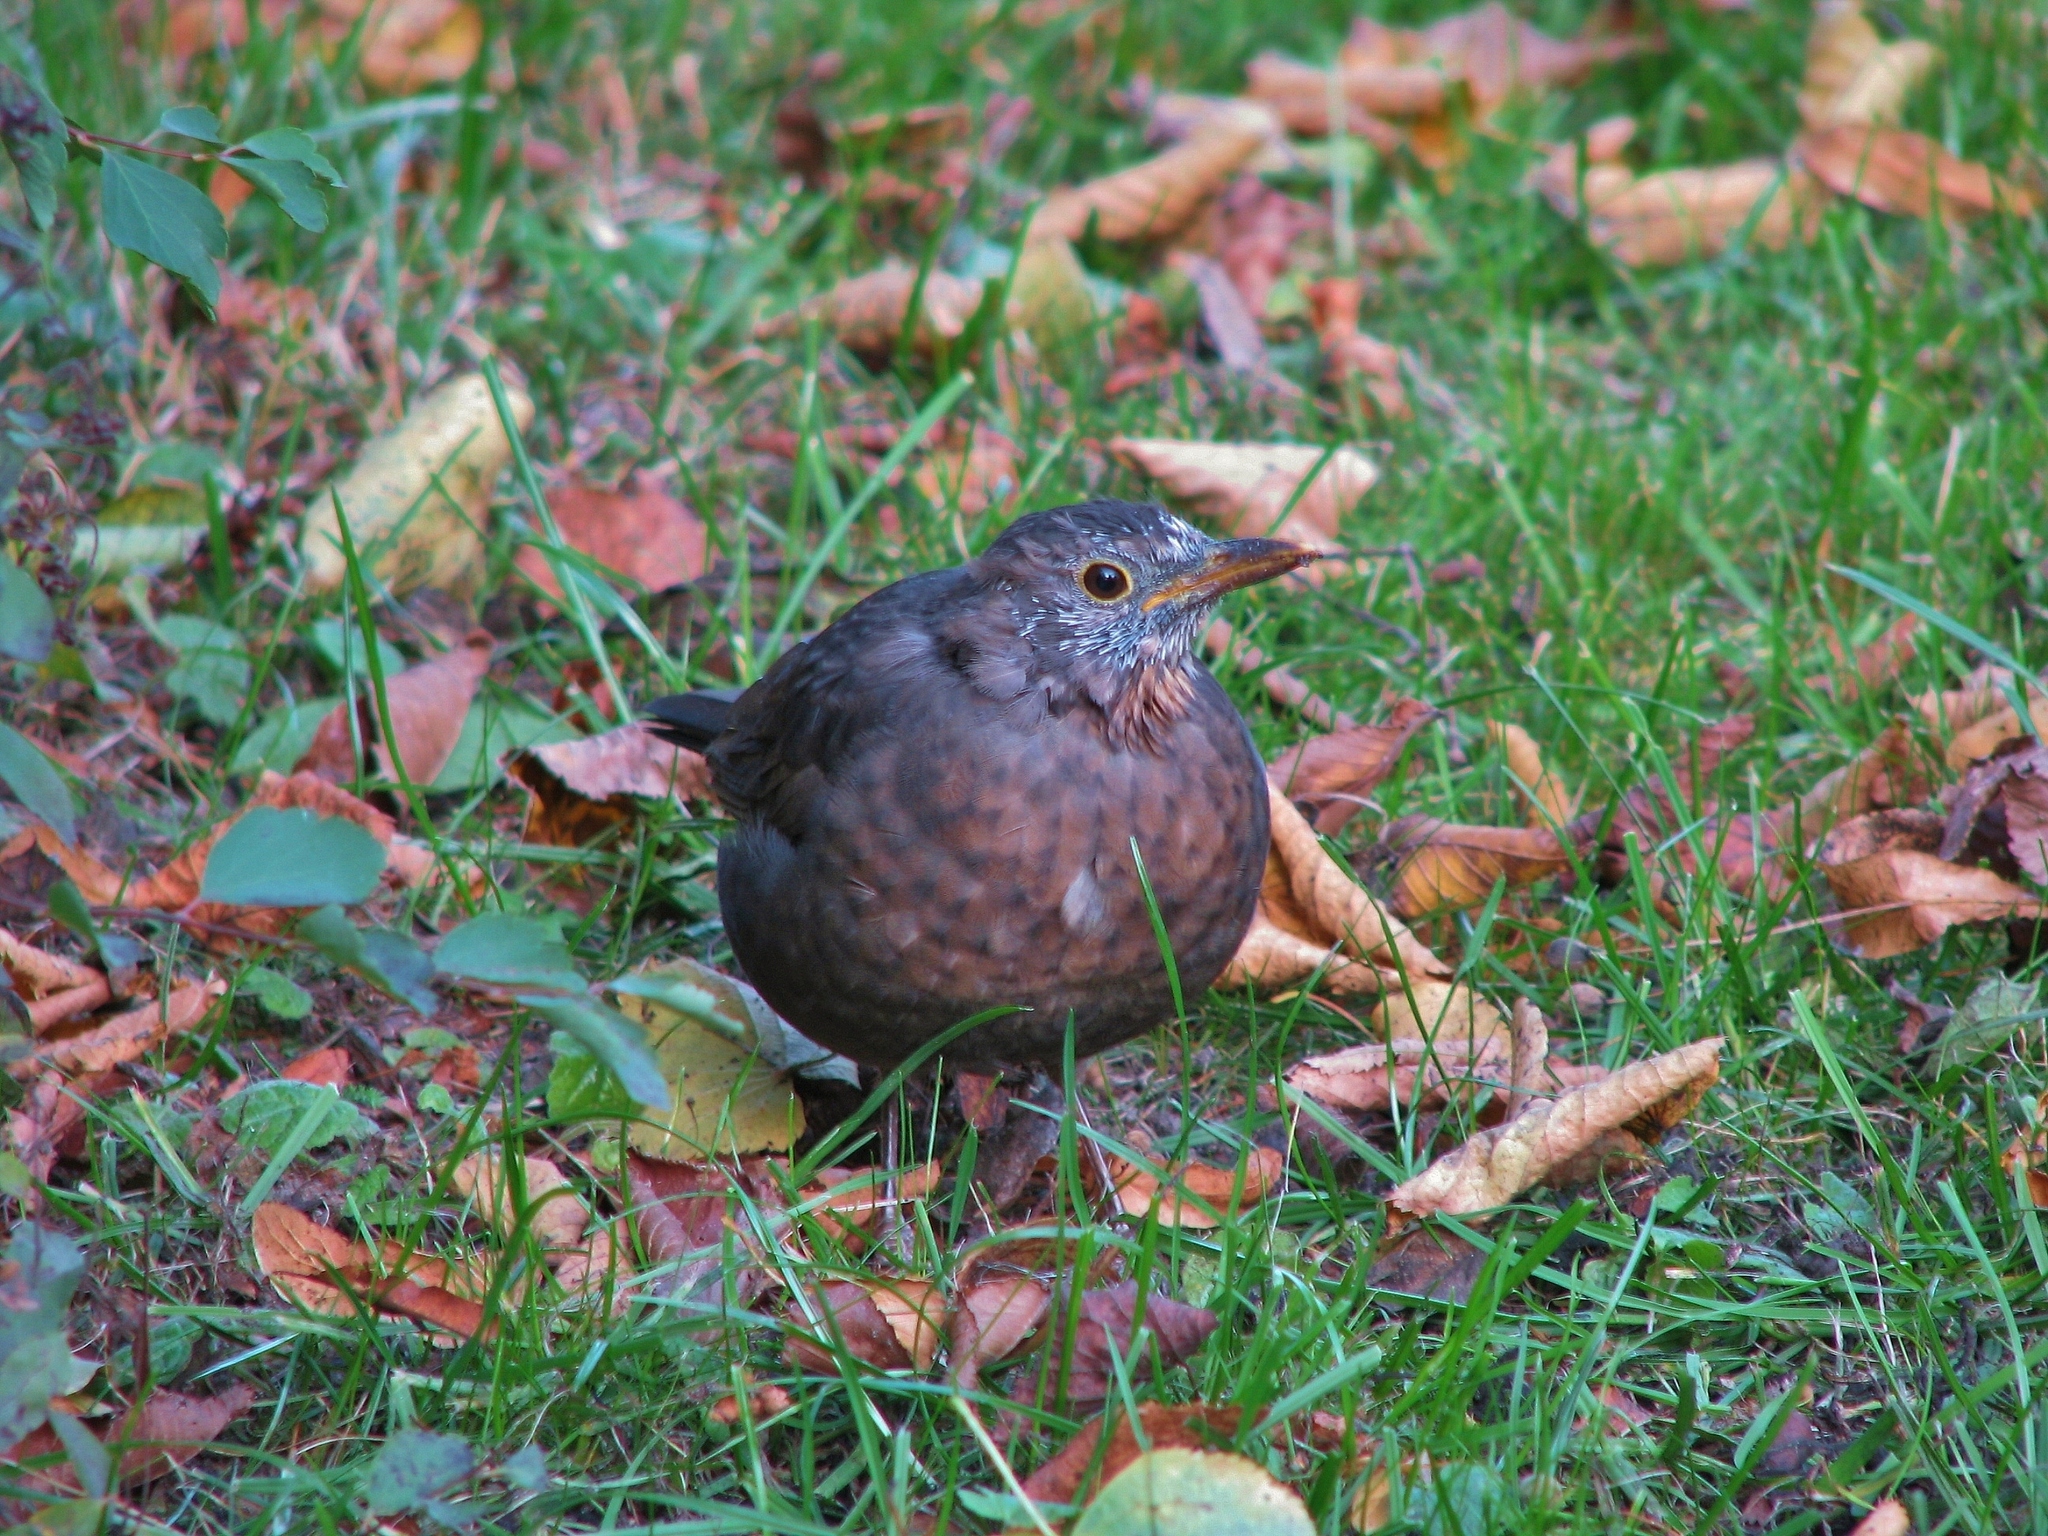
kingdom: Animalia
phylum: Chordata
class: Aves
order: Passeriformes
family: Turdidae
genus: Turdus
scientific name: Turdus merula
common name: Common blackbird
